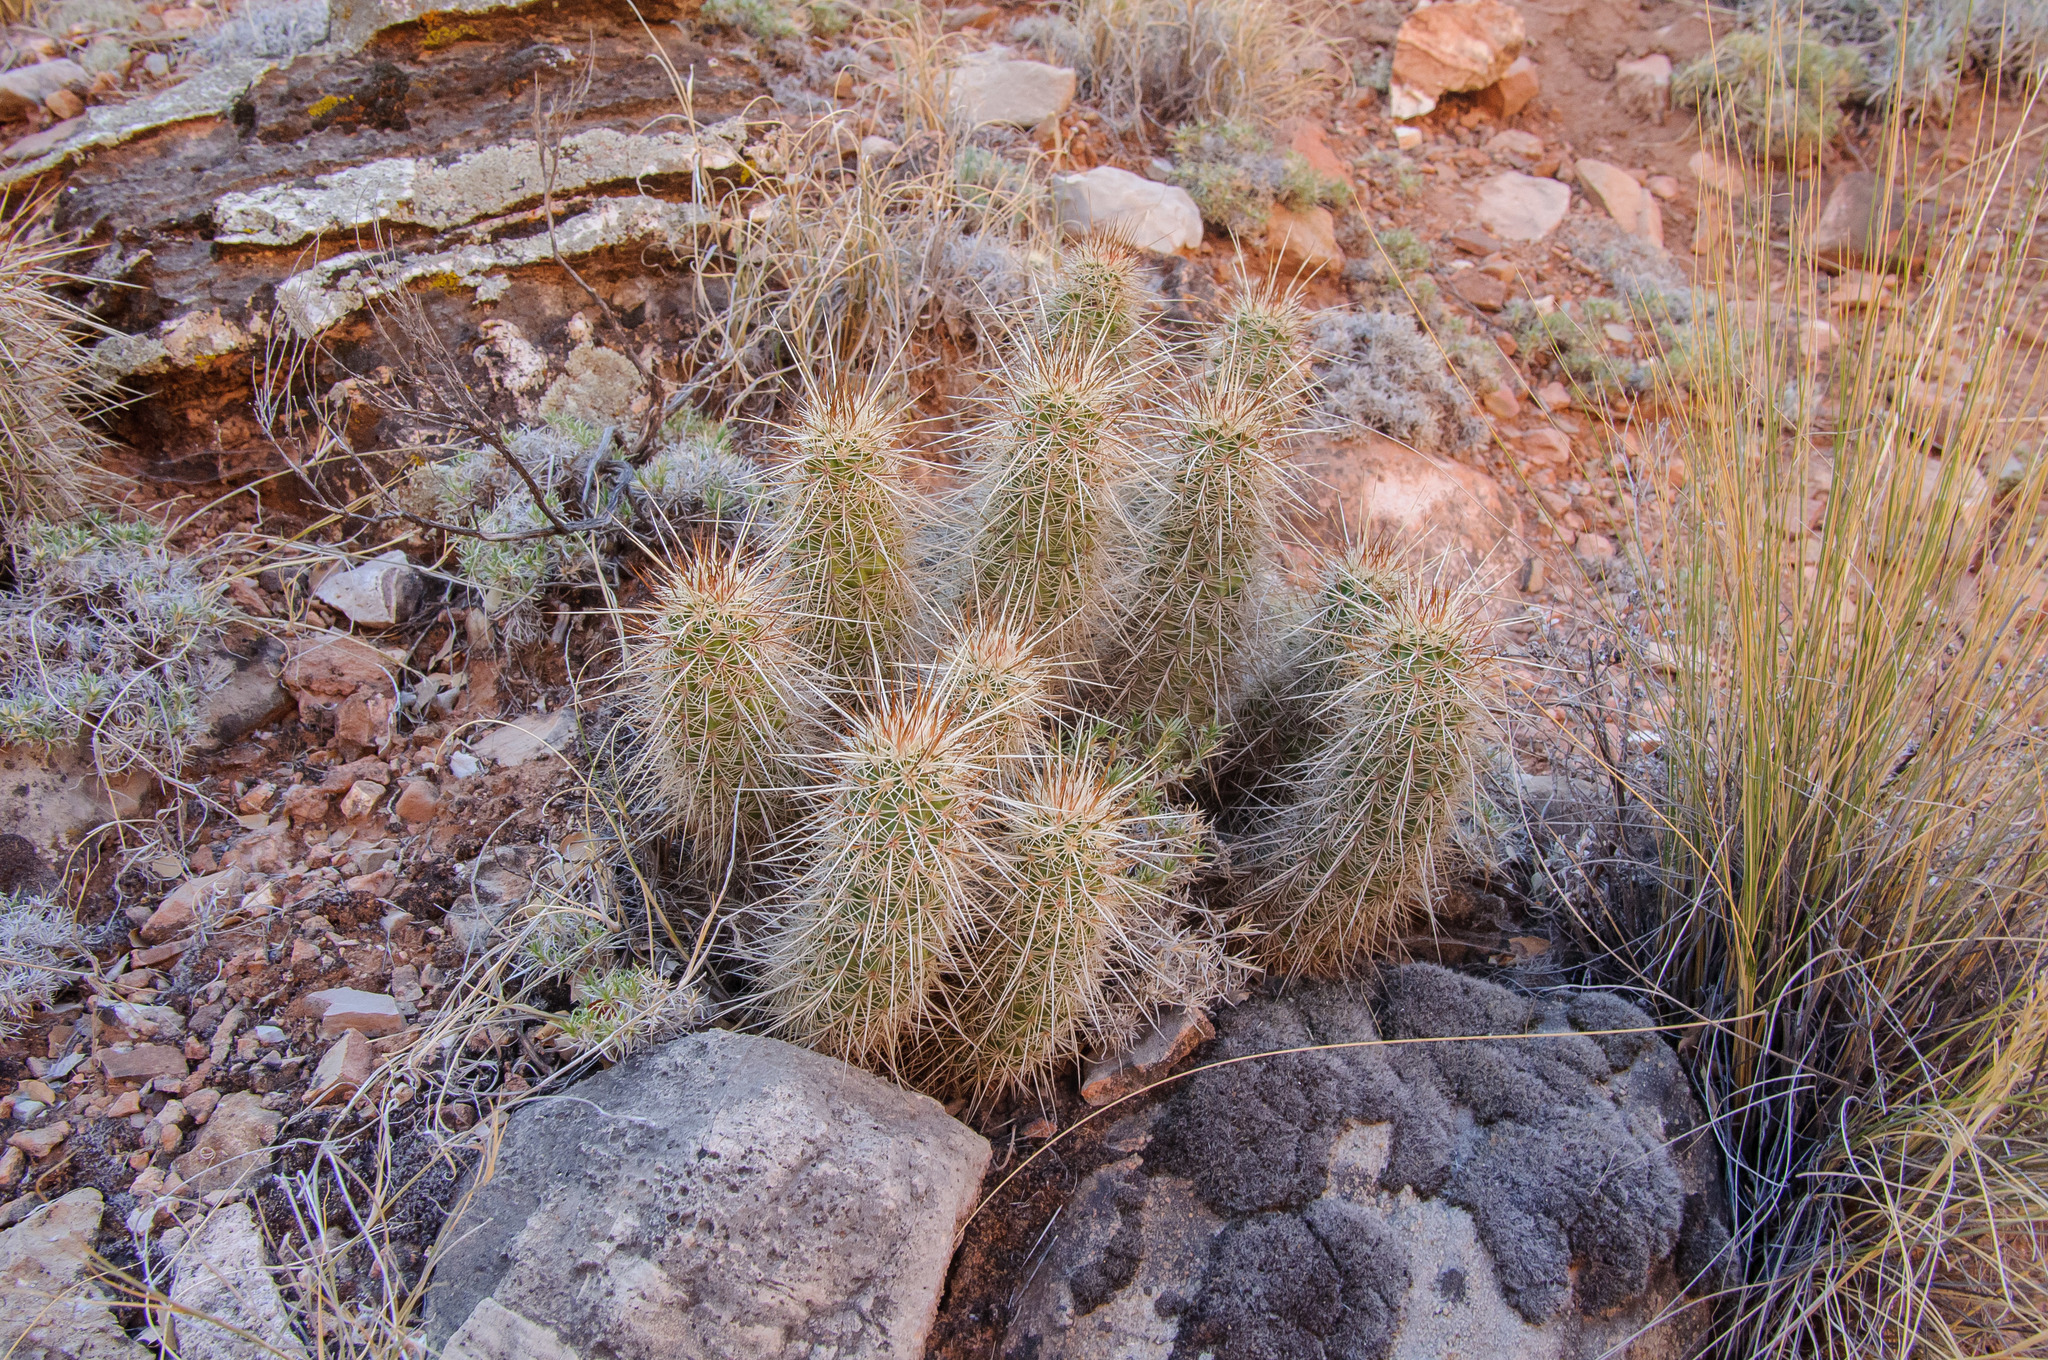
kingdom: Plantae
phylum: Tracheophyta
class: Magnoliopsida
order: Caryophyllales
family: Cactaceae
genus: Echinocereus
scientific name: Echinocereus engelmannii
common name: Engelmann's hedgehog cactus
